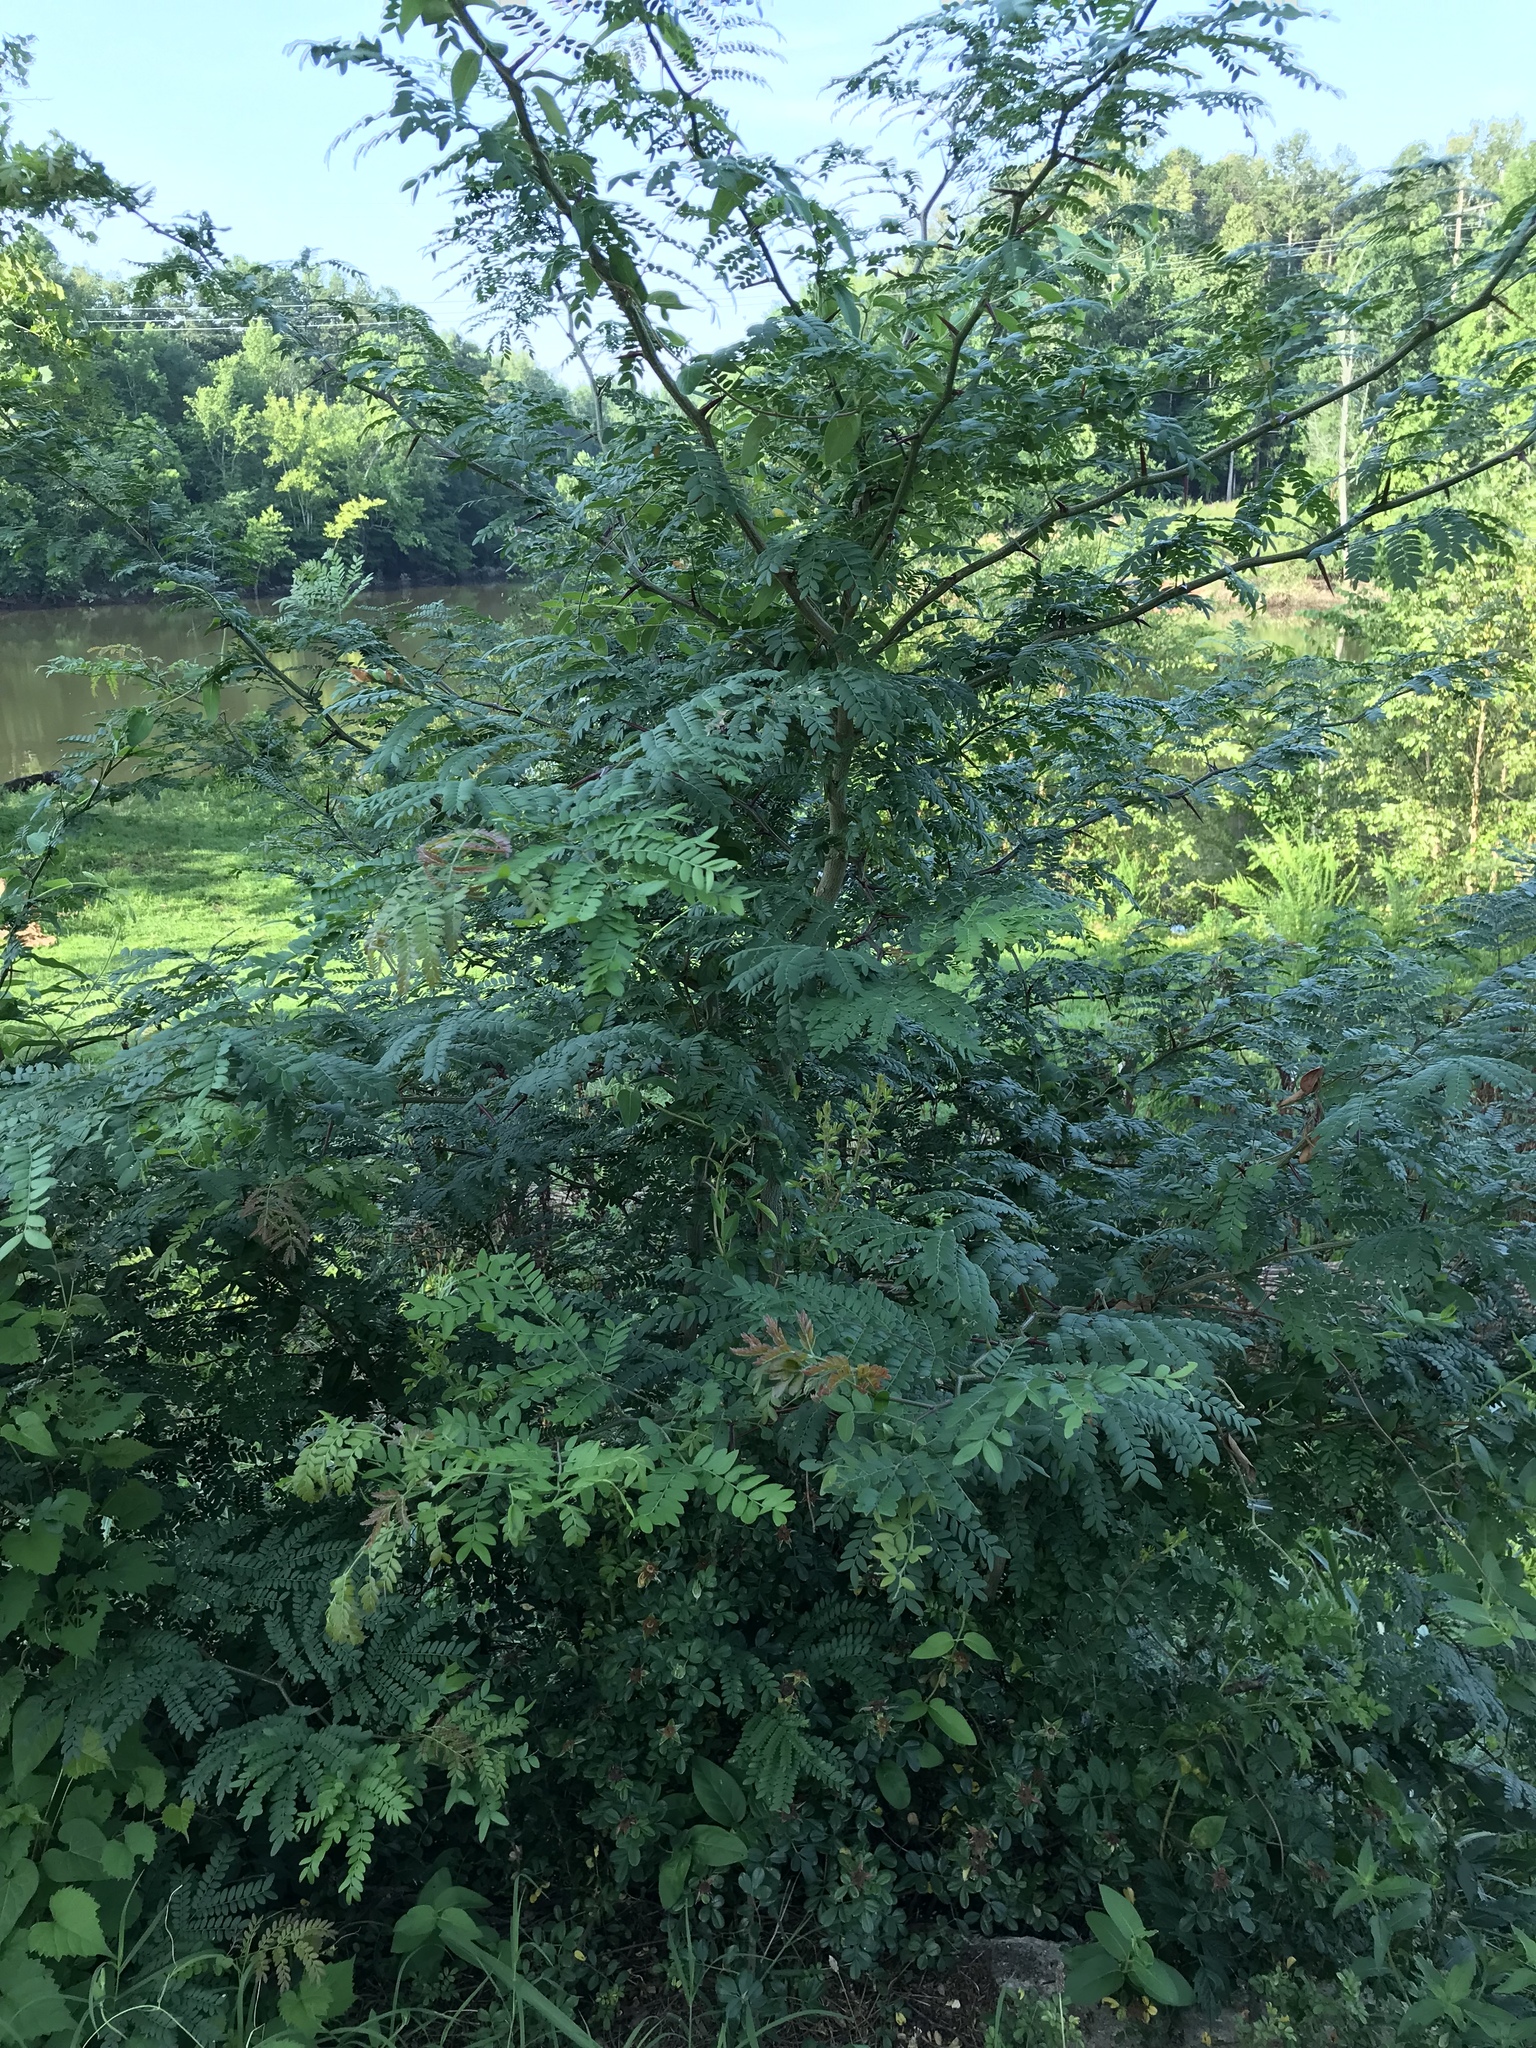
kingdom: Plantae
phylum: Tracheophyta
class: Magnoliopsida
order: Fabales
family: Fabaceae
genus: Gleditsia
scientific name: Gleditsia triacanthos
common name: Common honeylocust
